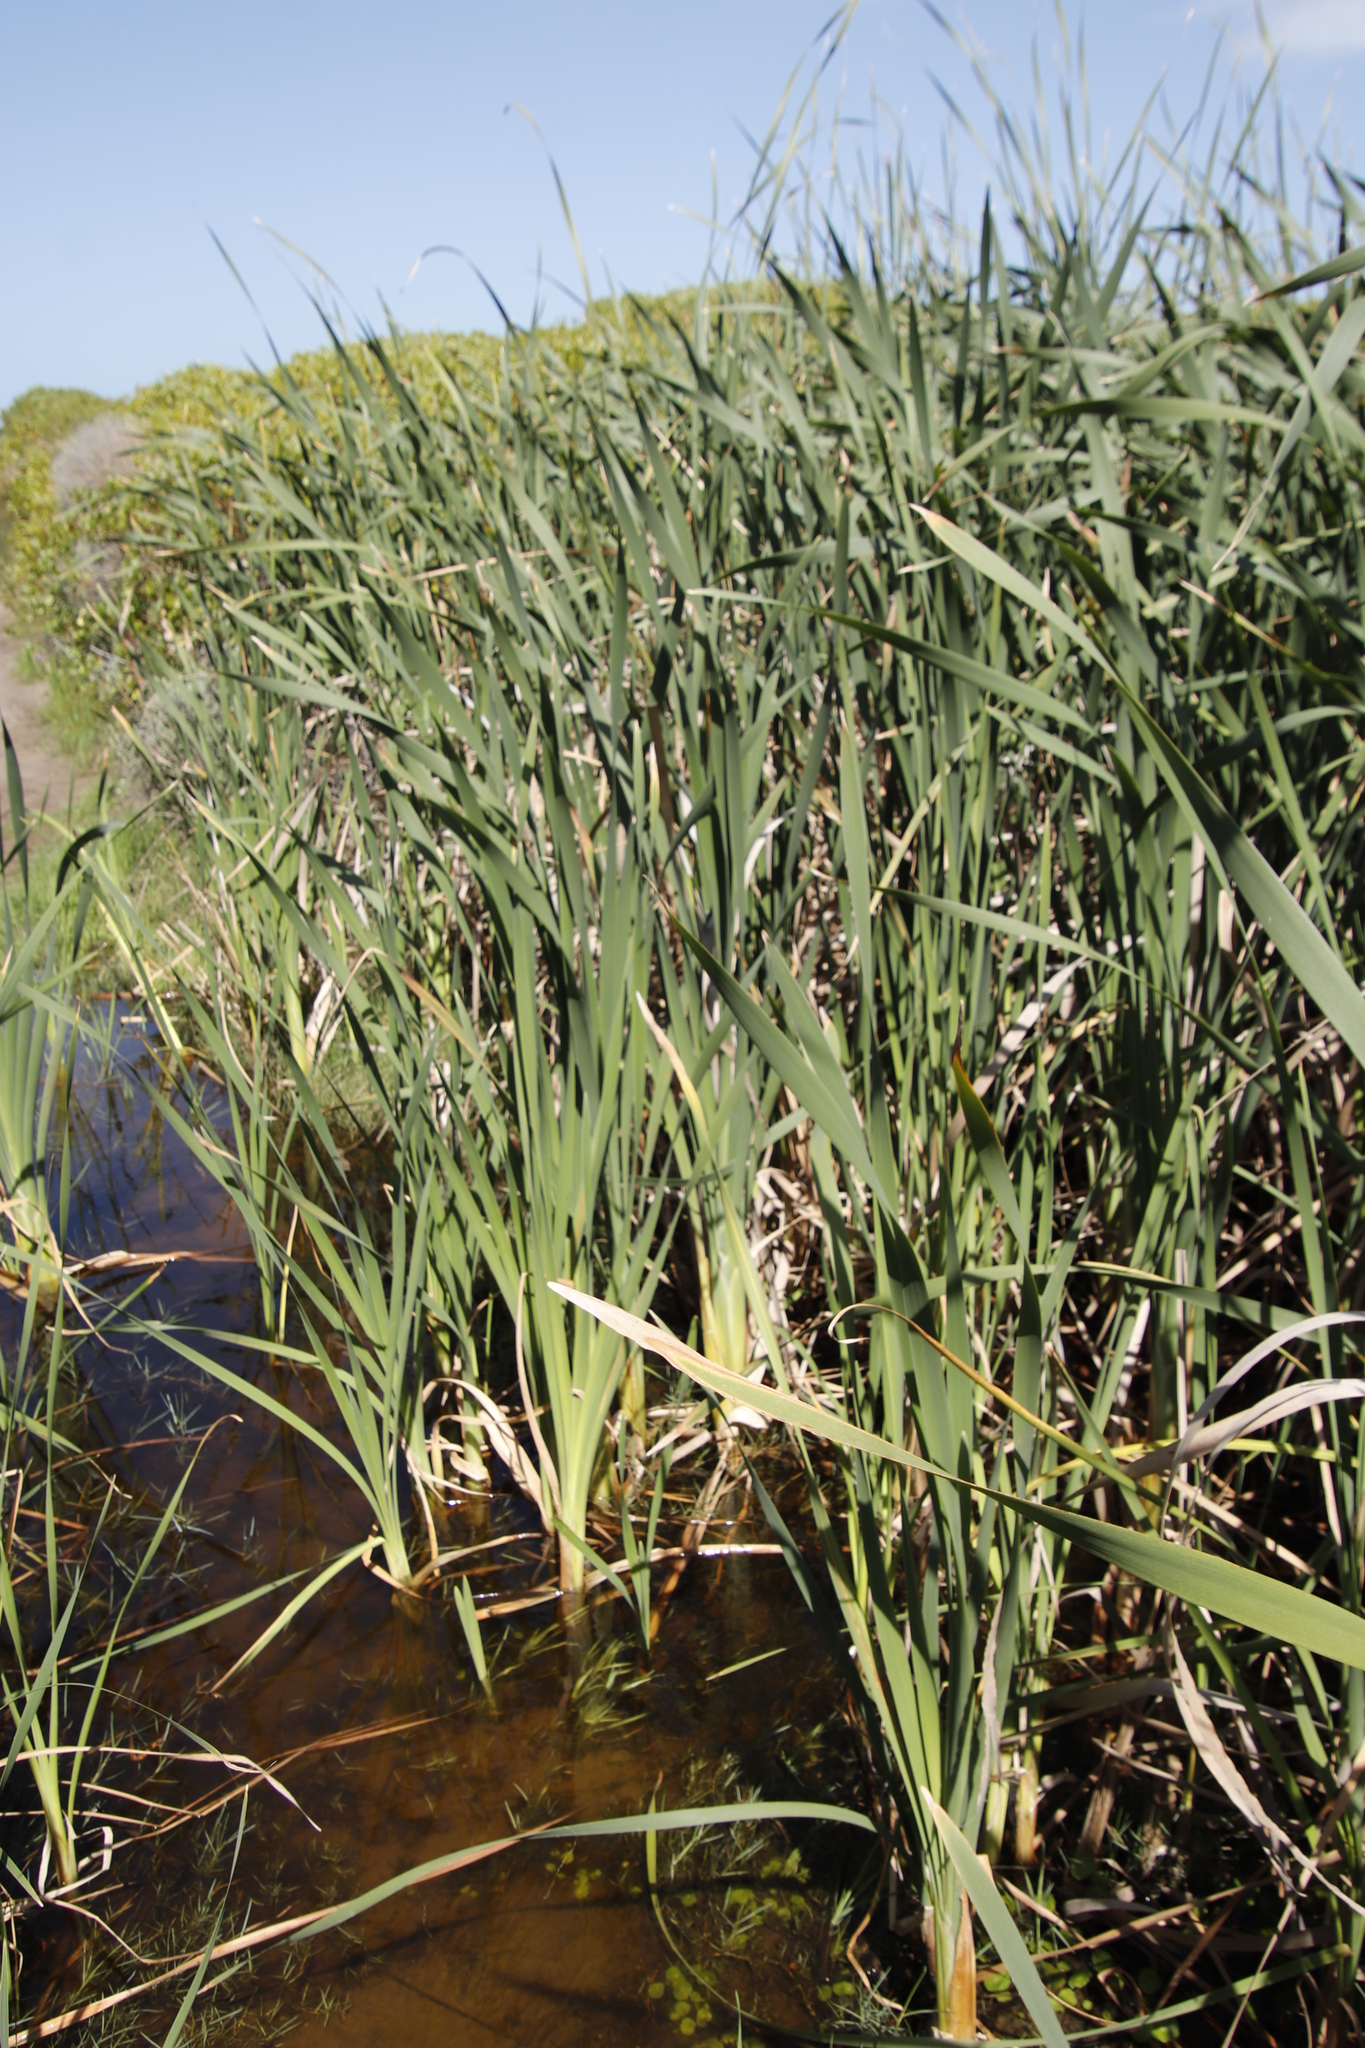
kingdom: Plantae
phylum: Tracheophyta
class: Liliopsida
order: Poales
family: Typhaceae
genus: Typha
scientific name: Typha capensis
